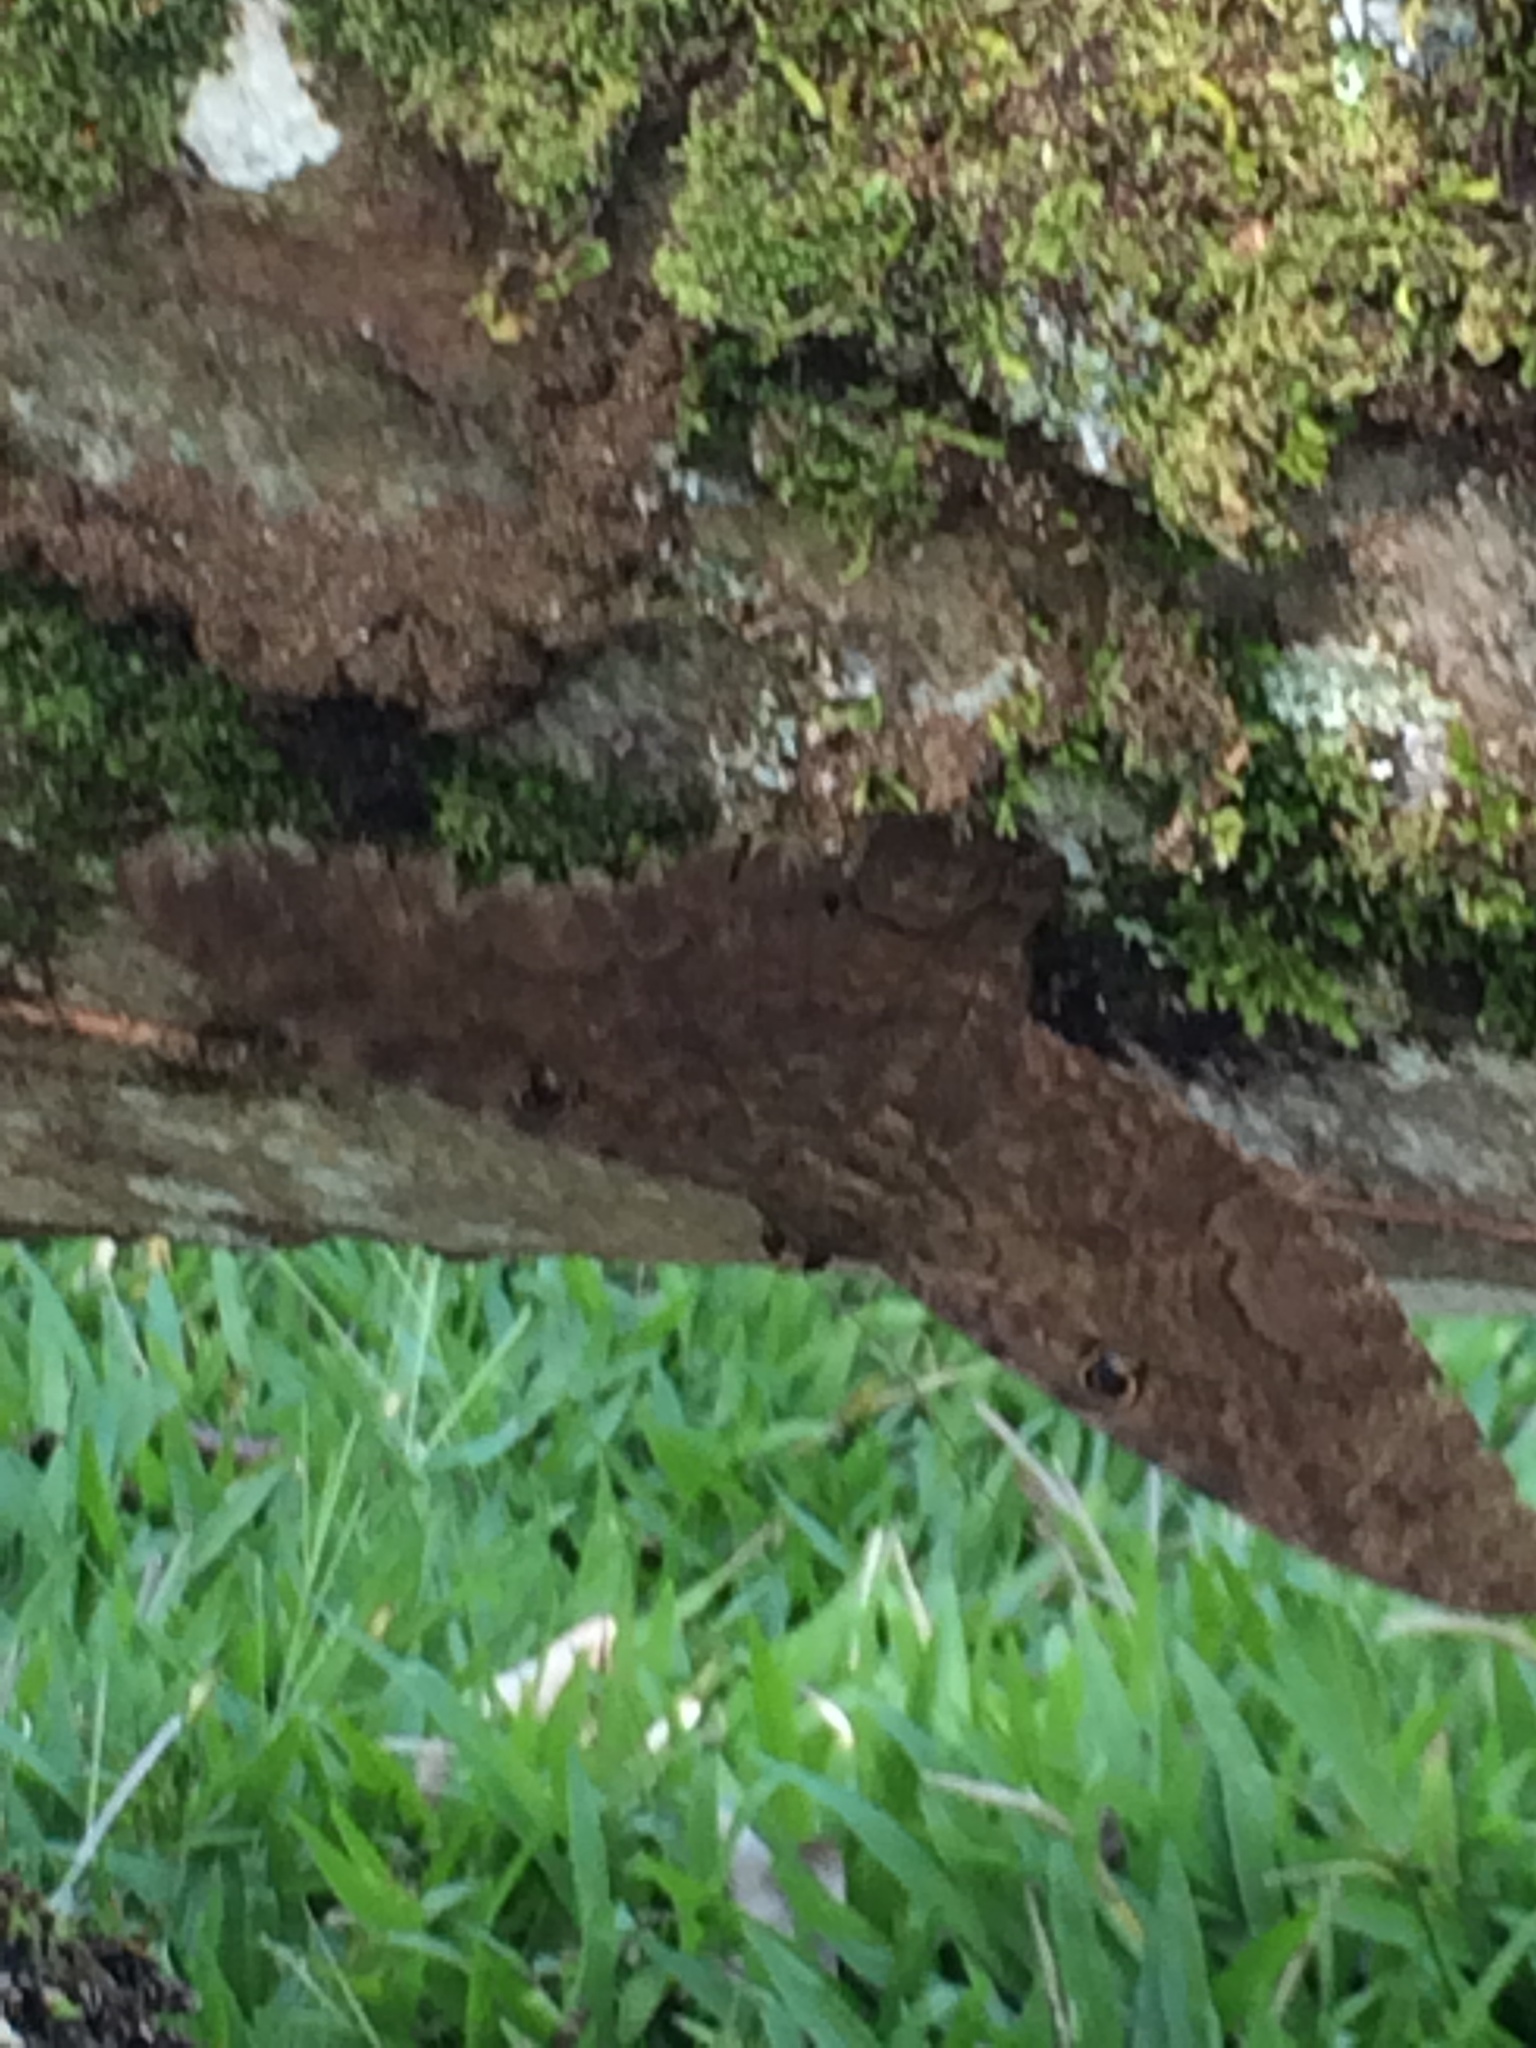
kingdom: Animalia
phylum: Arthropoda
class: Insecta
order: Lepidoptera
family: Erebidae
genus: Ascalapha
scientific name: Ascalapha odorata
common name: Black witch
